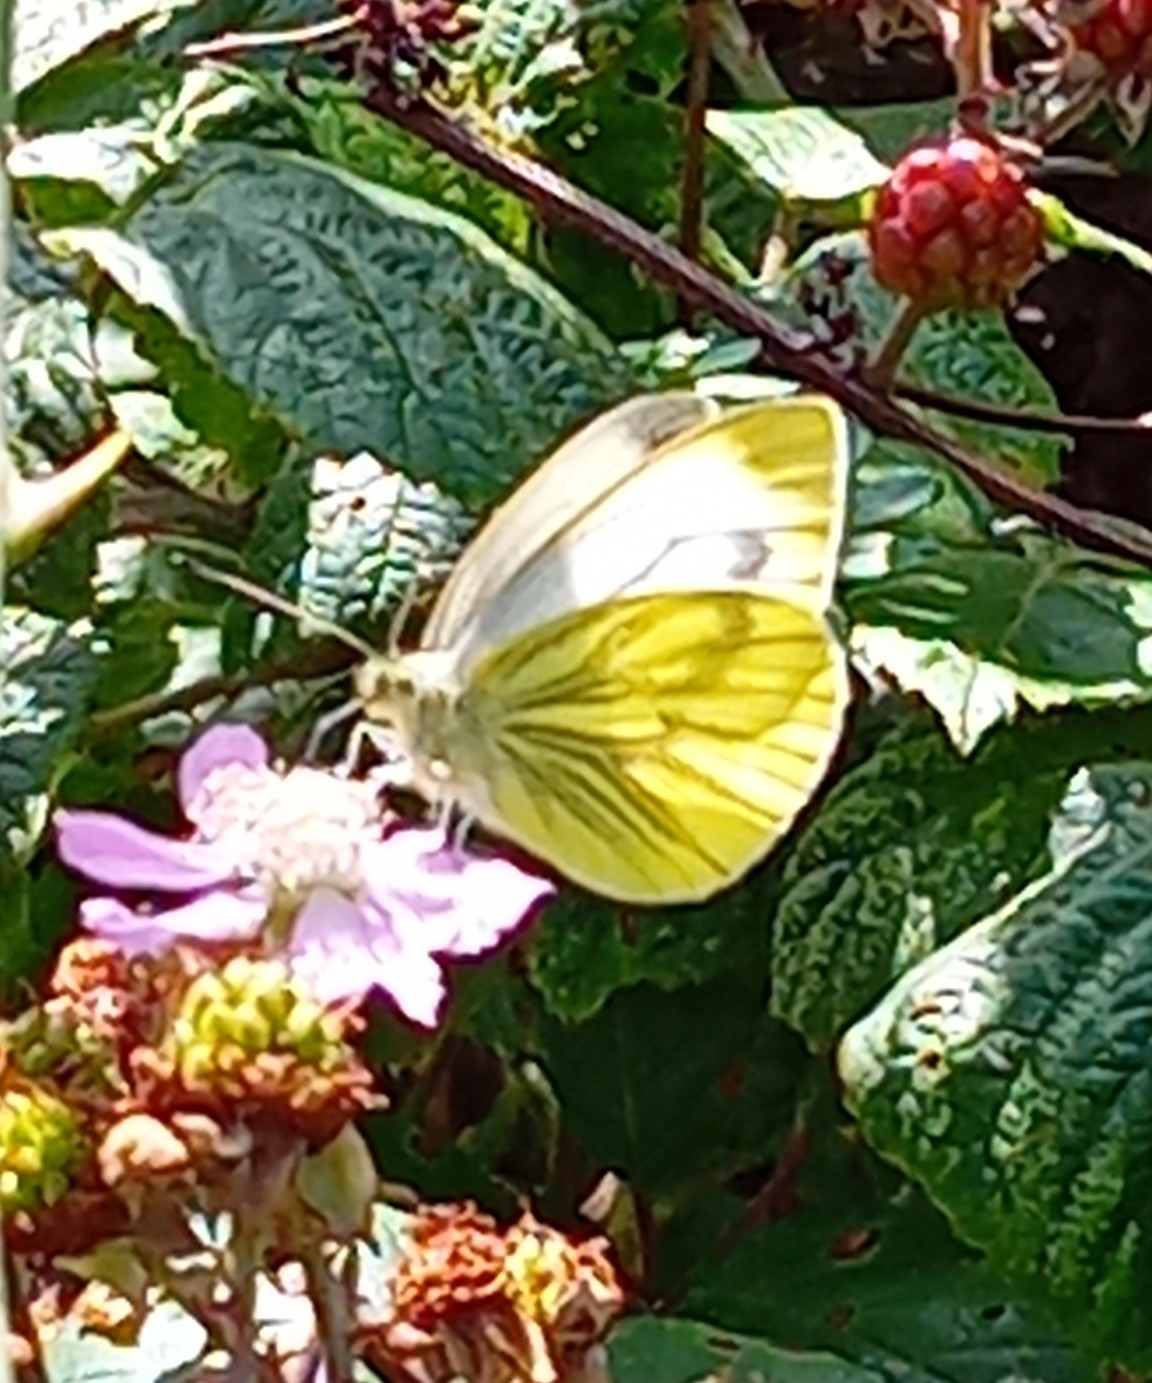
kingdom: Animalia
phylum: Arthropoda
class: Insecta
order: Lepidoptera
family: Pieridae
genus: Pieris
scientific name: Pieris napi
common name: Green-veined white
